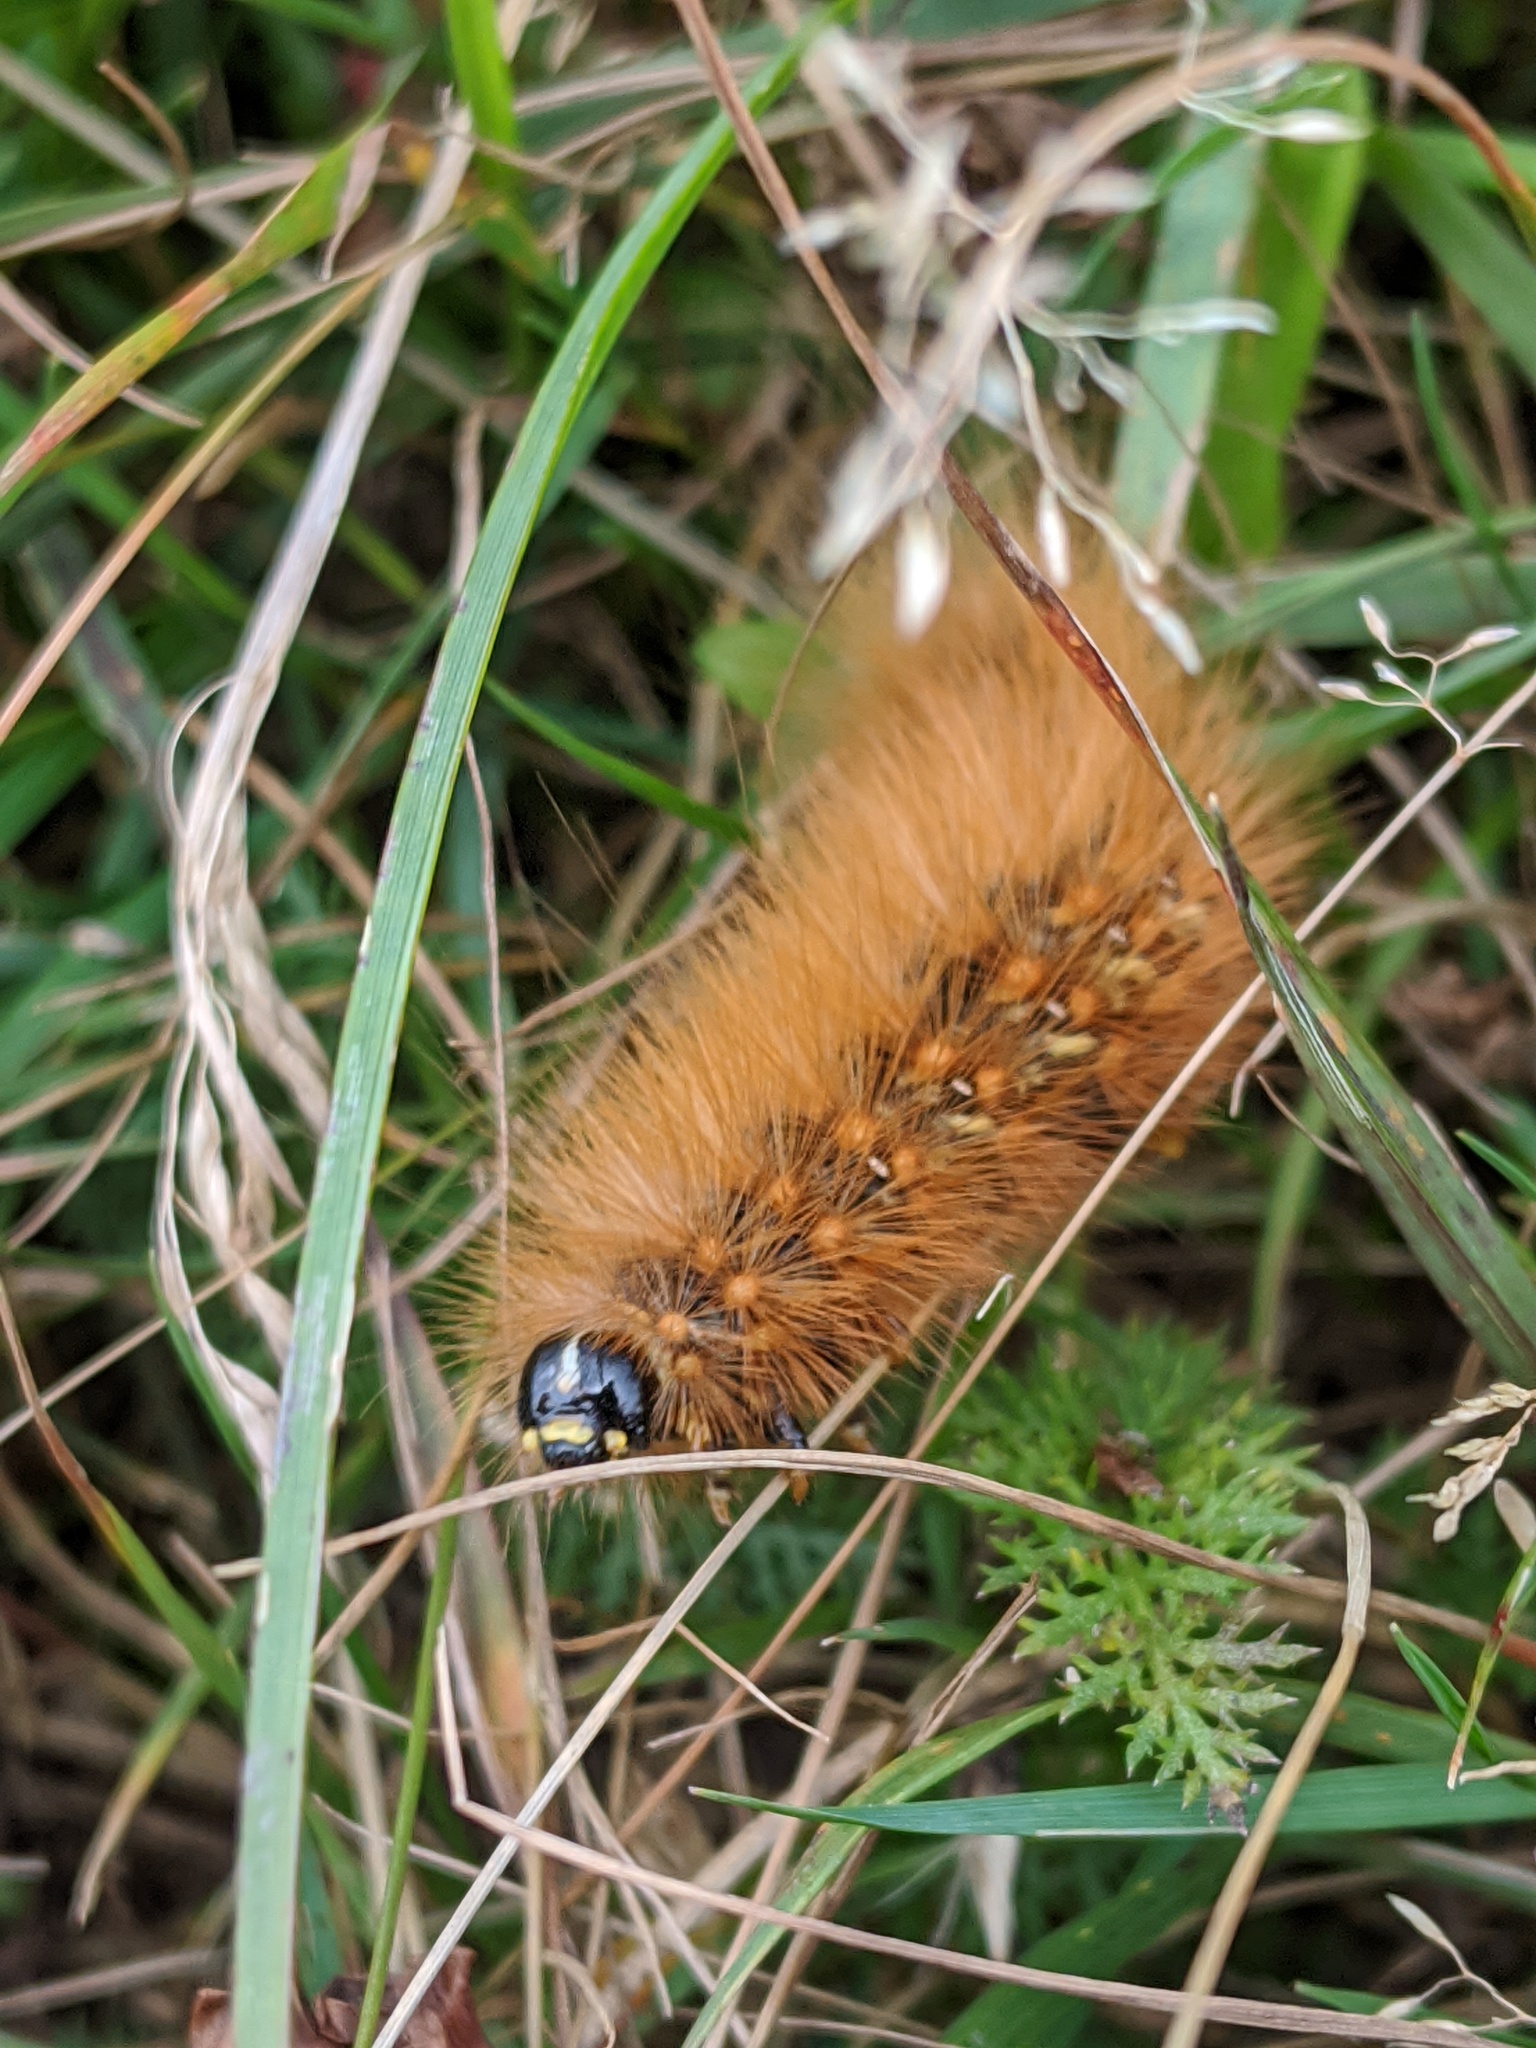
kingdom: Animalia
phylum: Arthropoda
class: Insecta
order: Lepidoptera
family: Erebidae
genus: Estigmene
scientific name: Estigmene acrea
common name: Salt marsh moth
